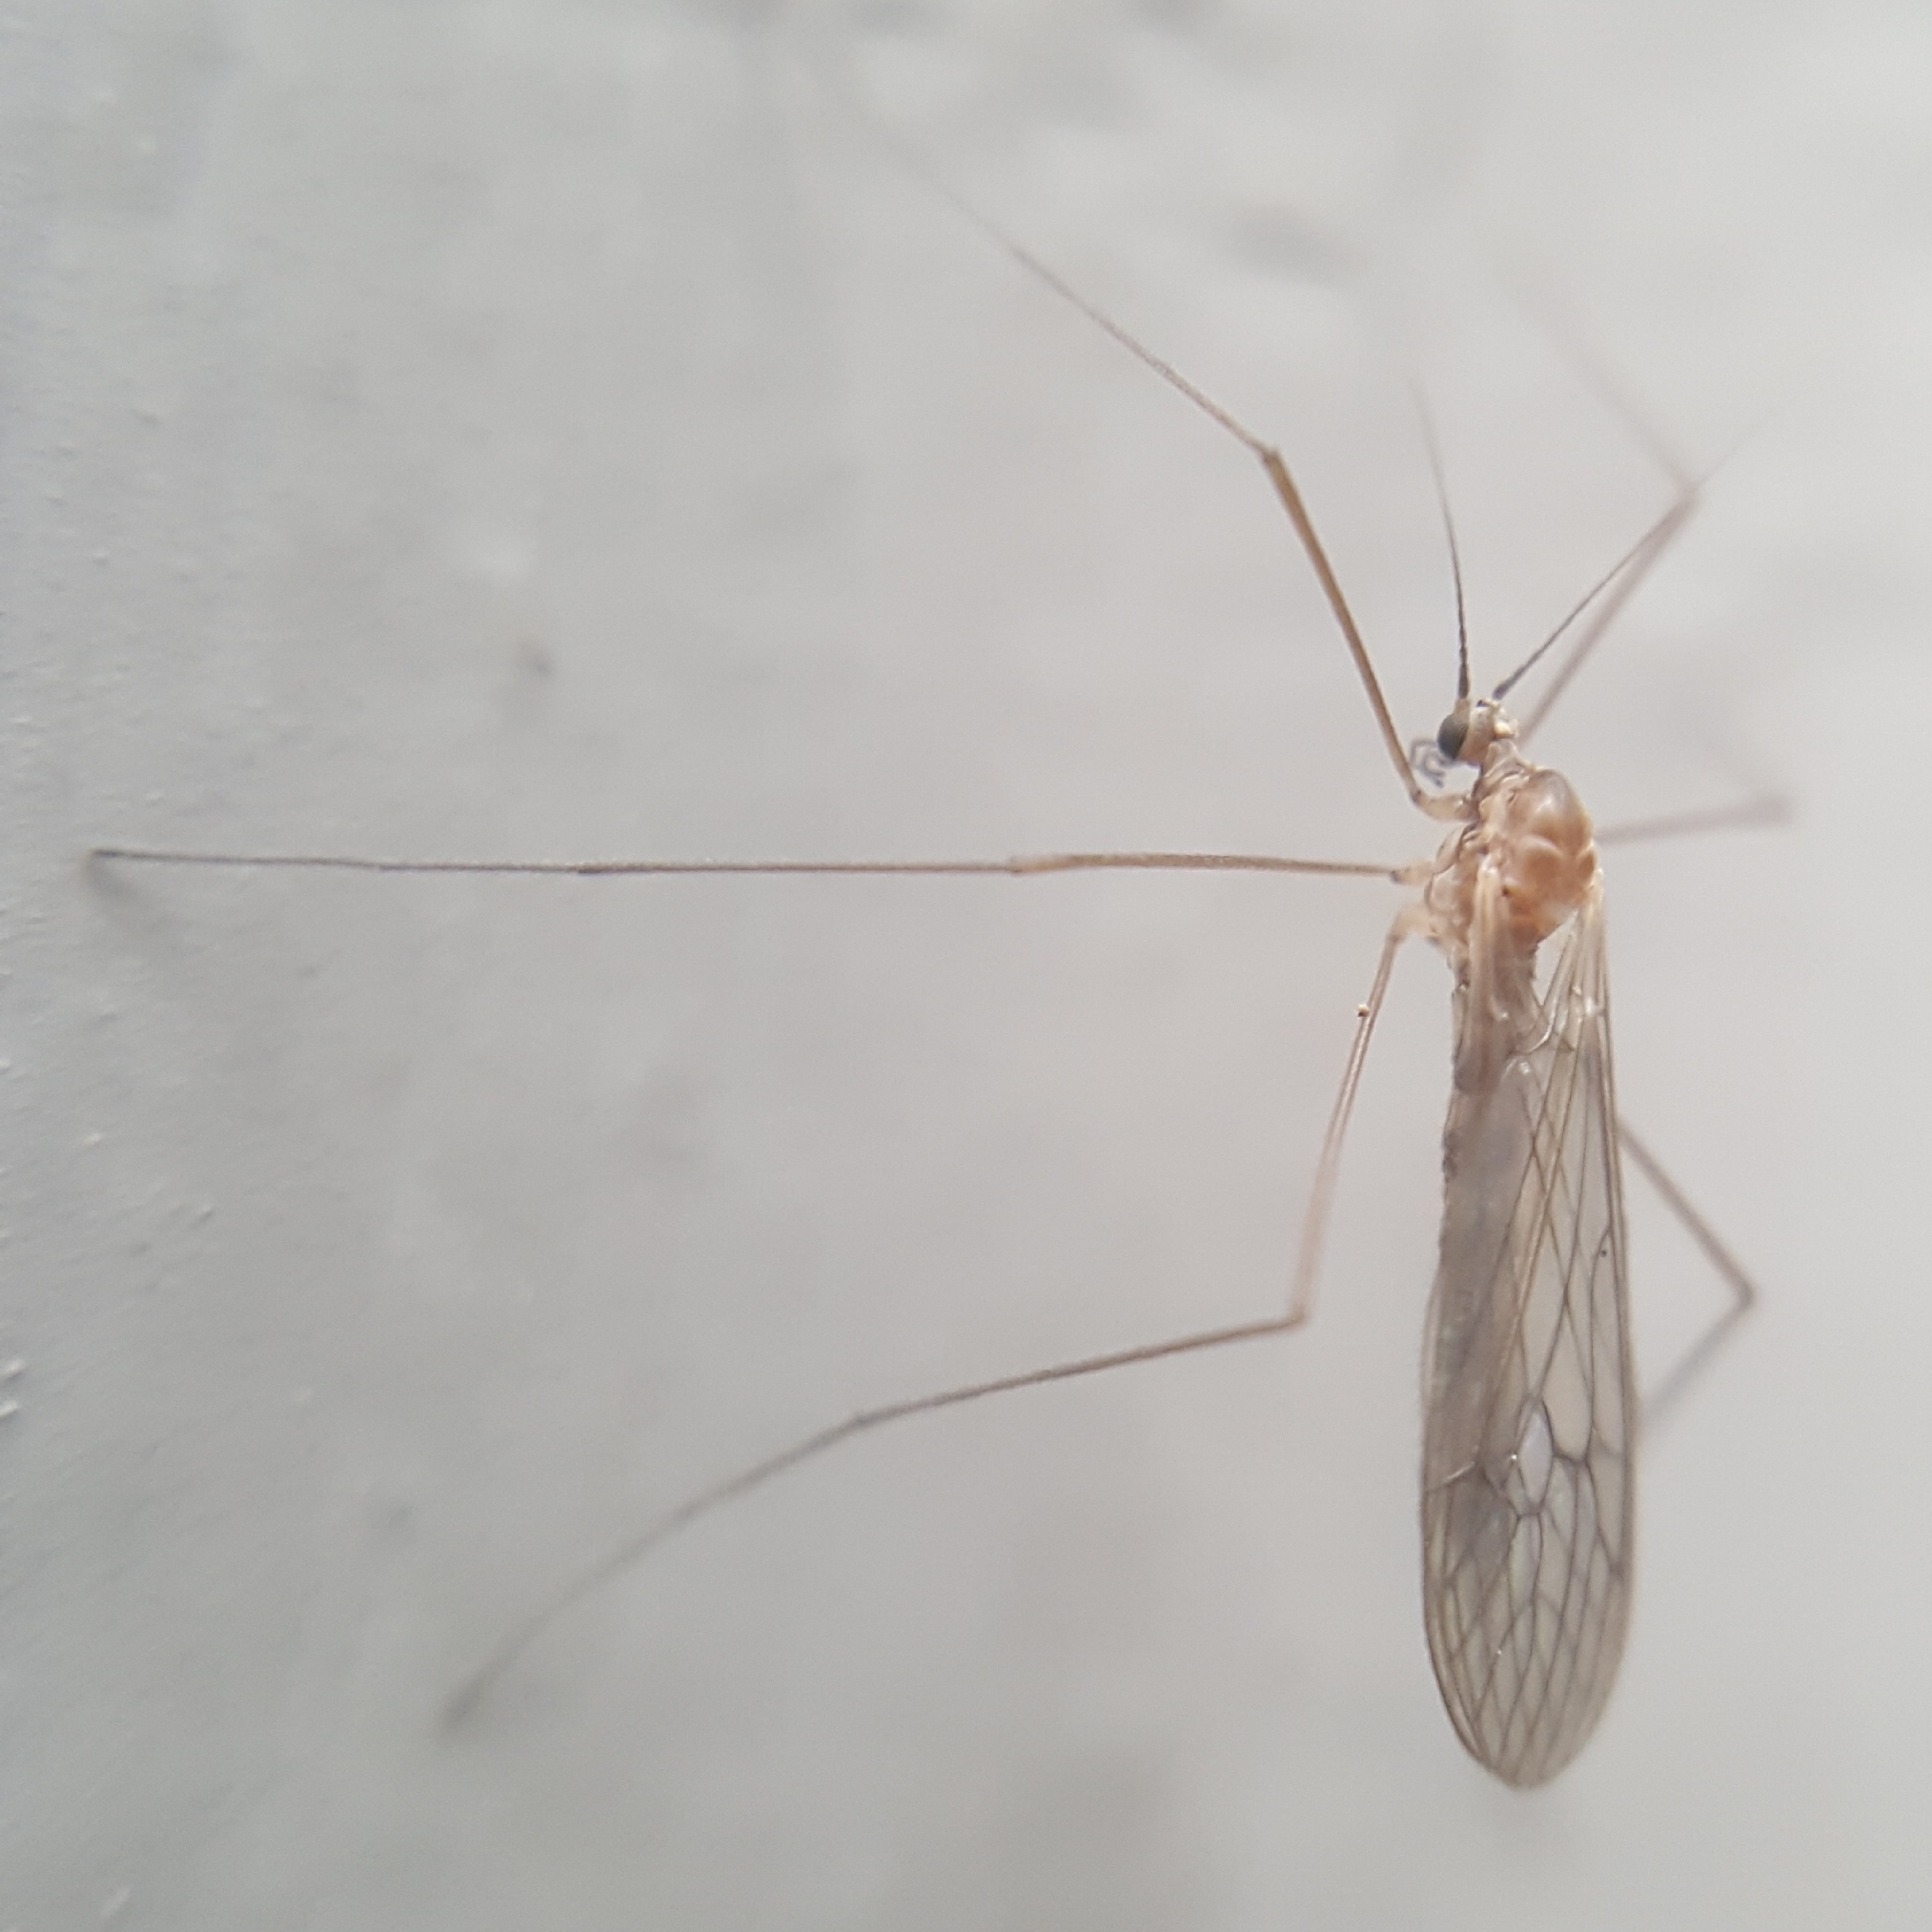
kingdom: Animalia
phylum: Arthropoda
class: Insecta
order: Diptera
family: Trichoceridae
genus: Trichocera
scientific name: Trichocera annulata
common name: Winter gnat
